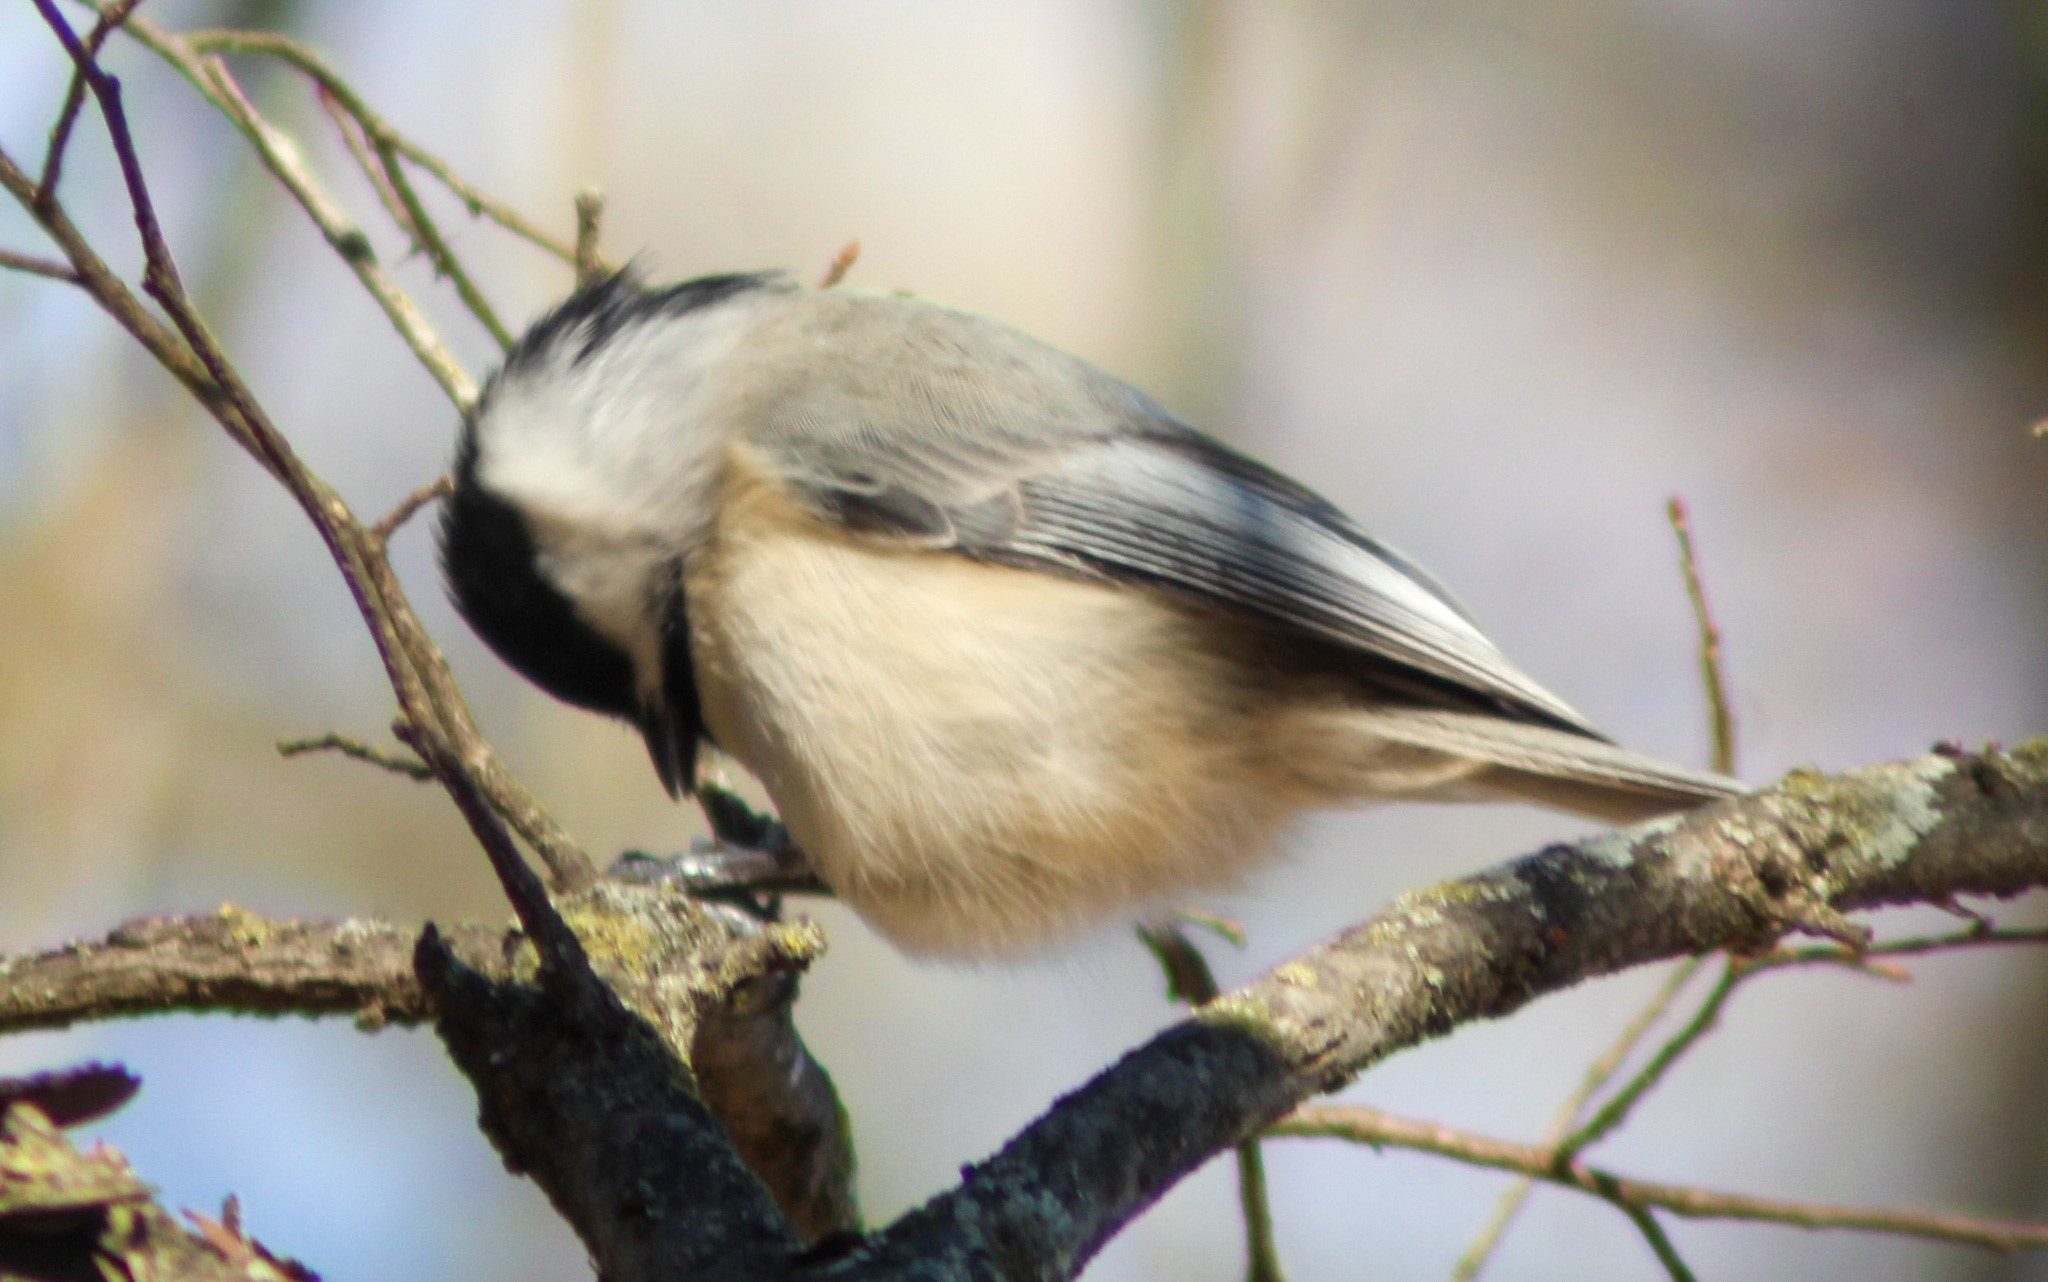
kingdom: Animalia
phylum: Chordata
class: Aves
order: Passeriformes
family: Paridae
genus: Poecile
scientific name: Poecile carolinensis
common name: Carolina chickadee
